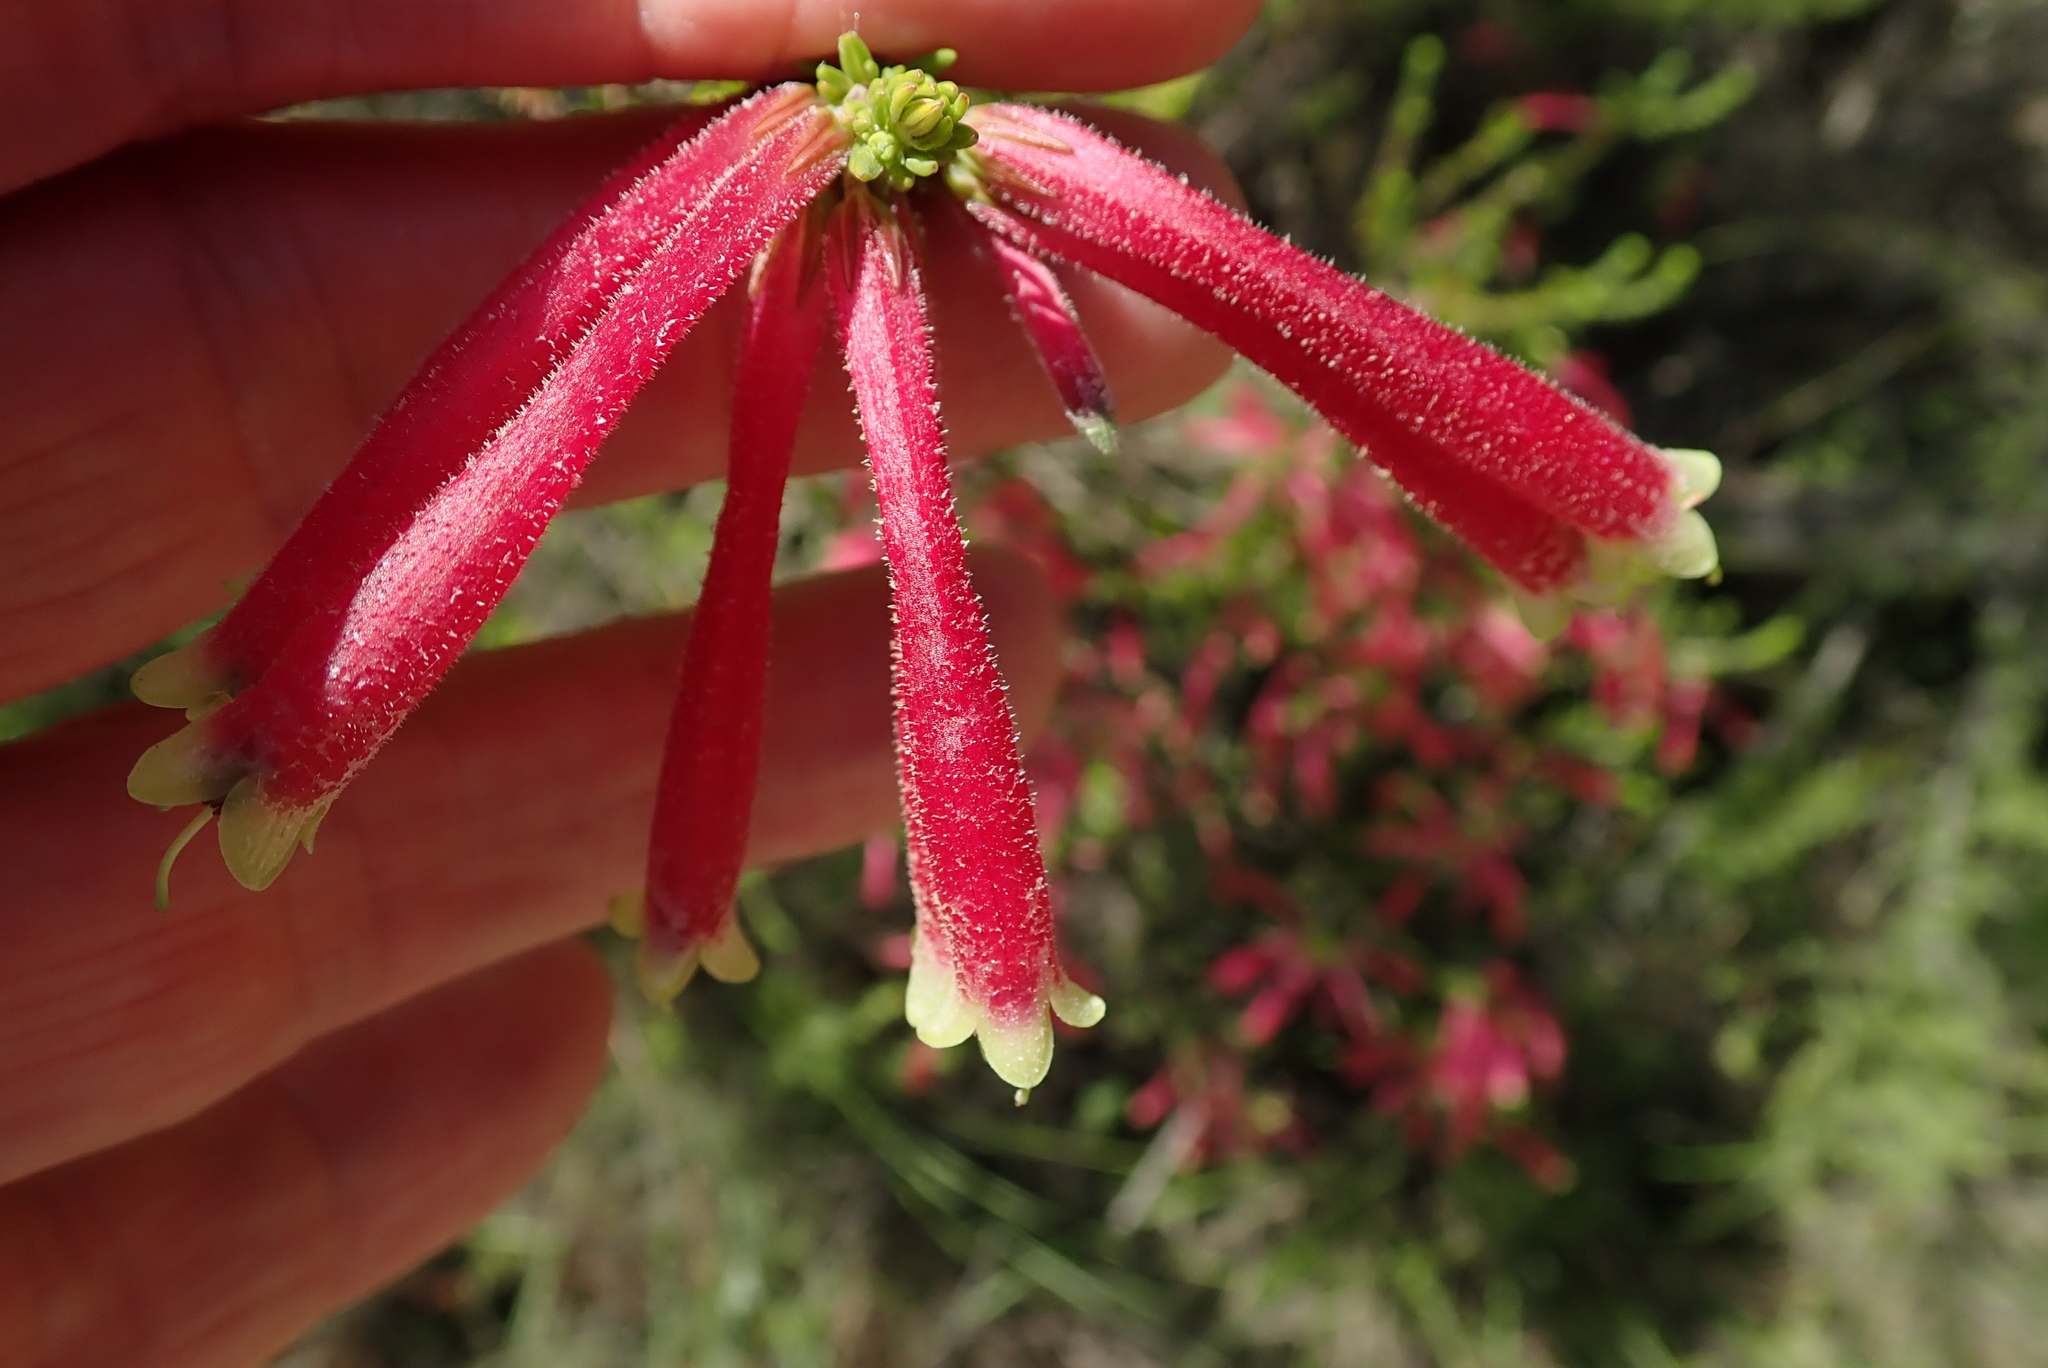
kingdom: Plantae
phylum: Tracheophyta
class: Magnoliopsida
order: Ericales
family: Ericaceae
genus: Erica
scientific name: Erica densifolia
